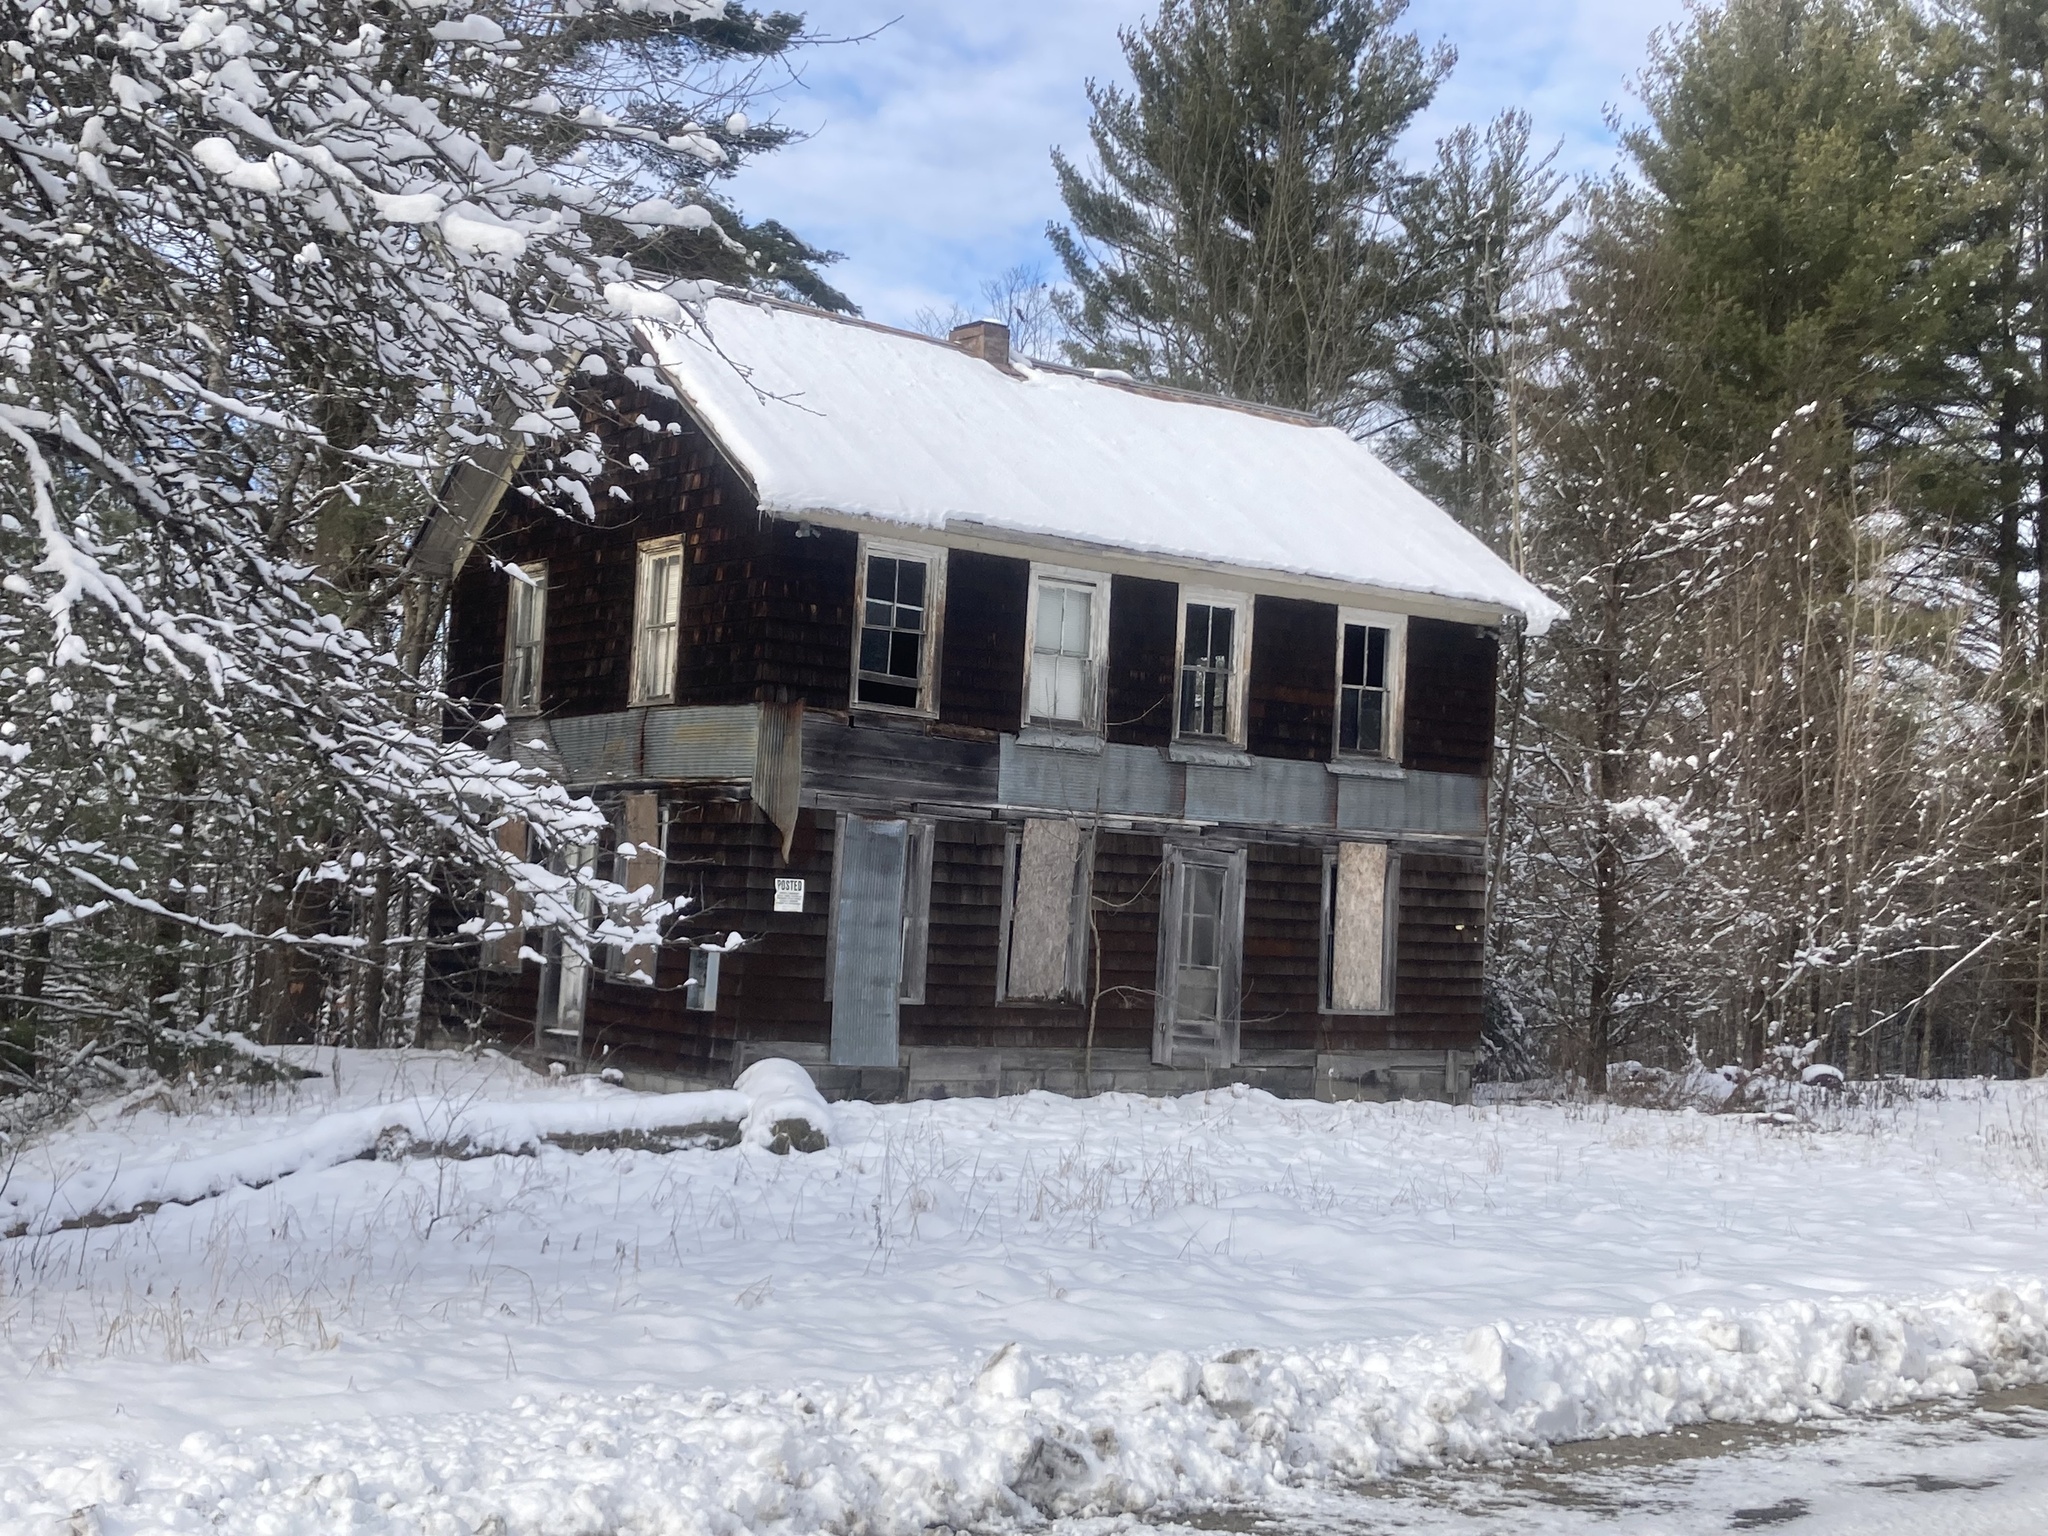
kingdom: Plantae
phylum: Tracheophyta
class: Pinopsida
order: Pinales
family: Pinaceae
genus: Pinus
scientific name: Pinus strobus
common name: Weymouth pine
